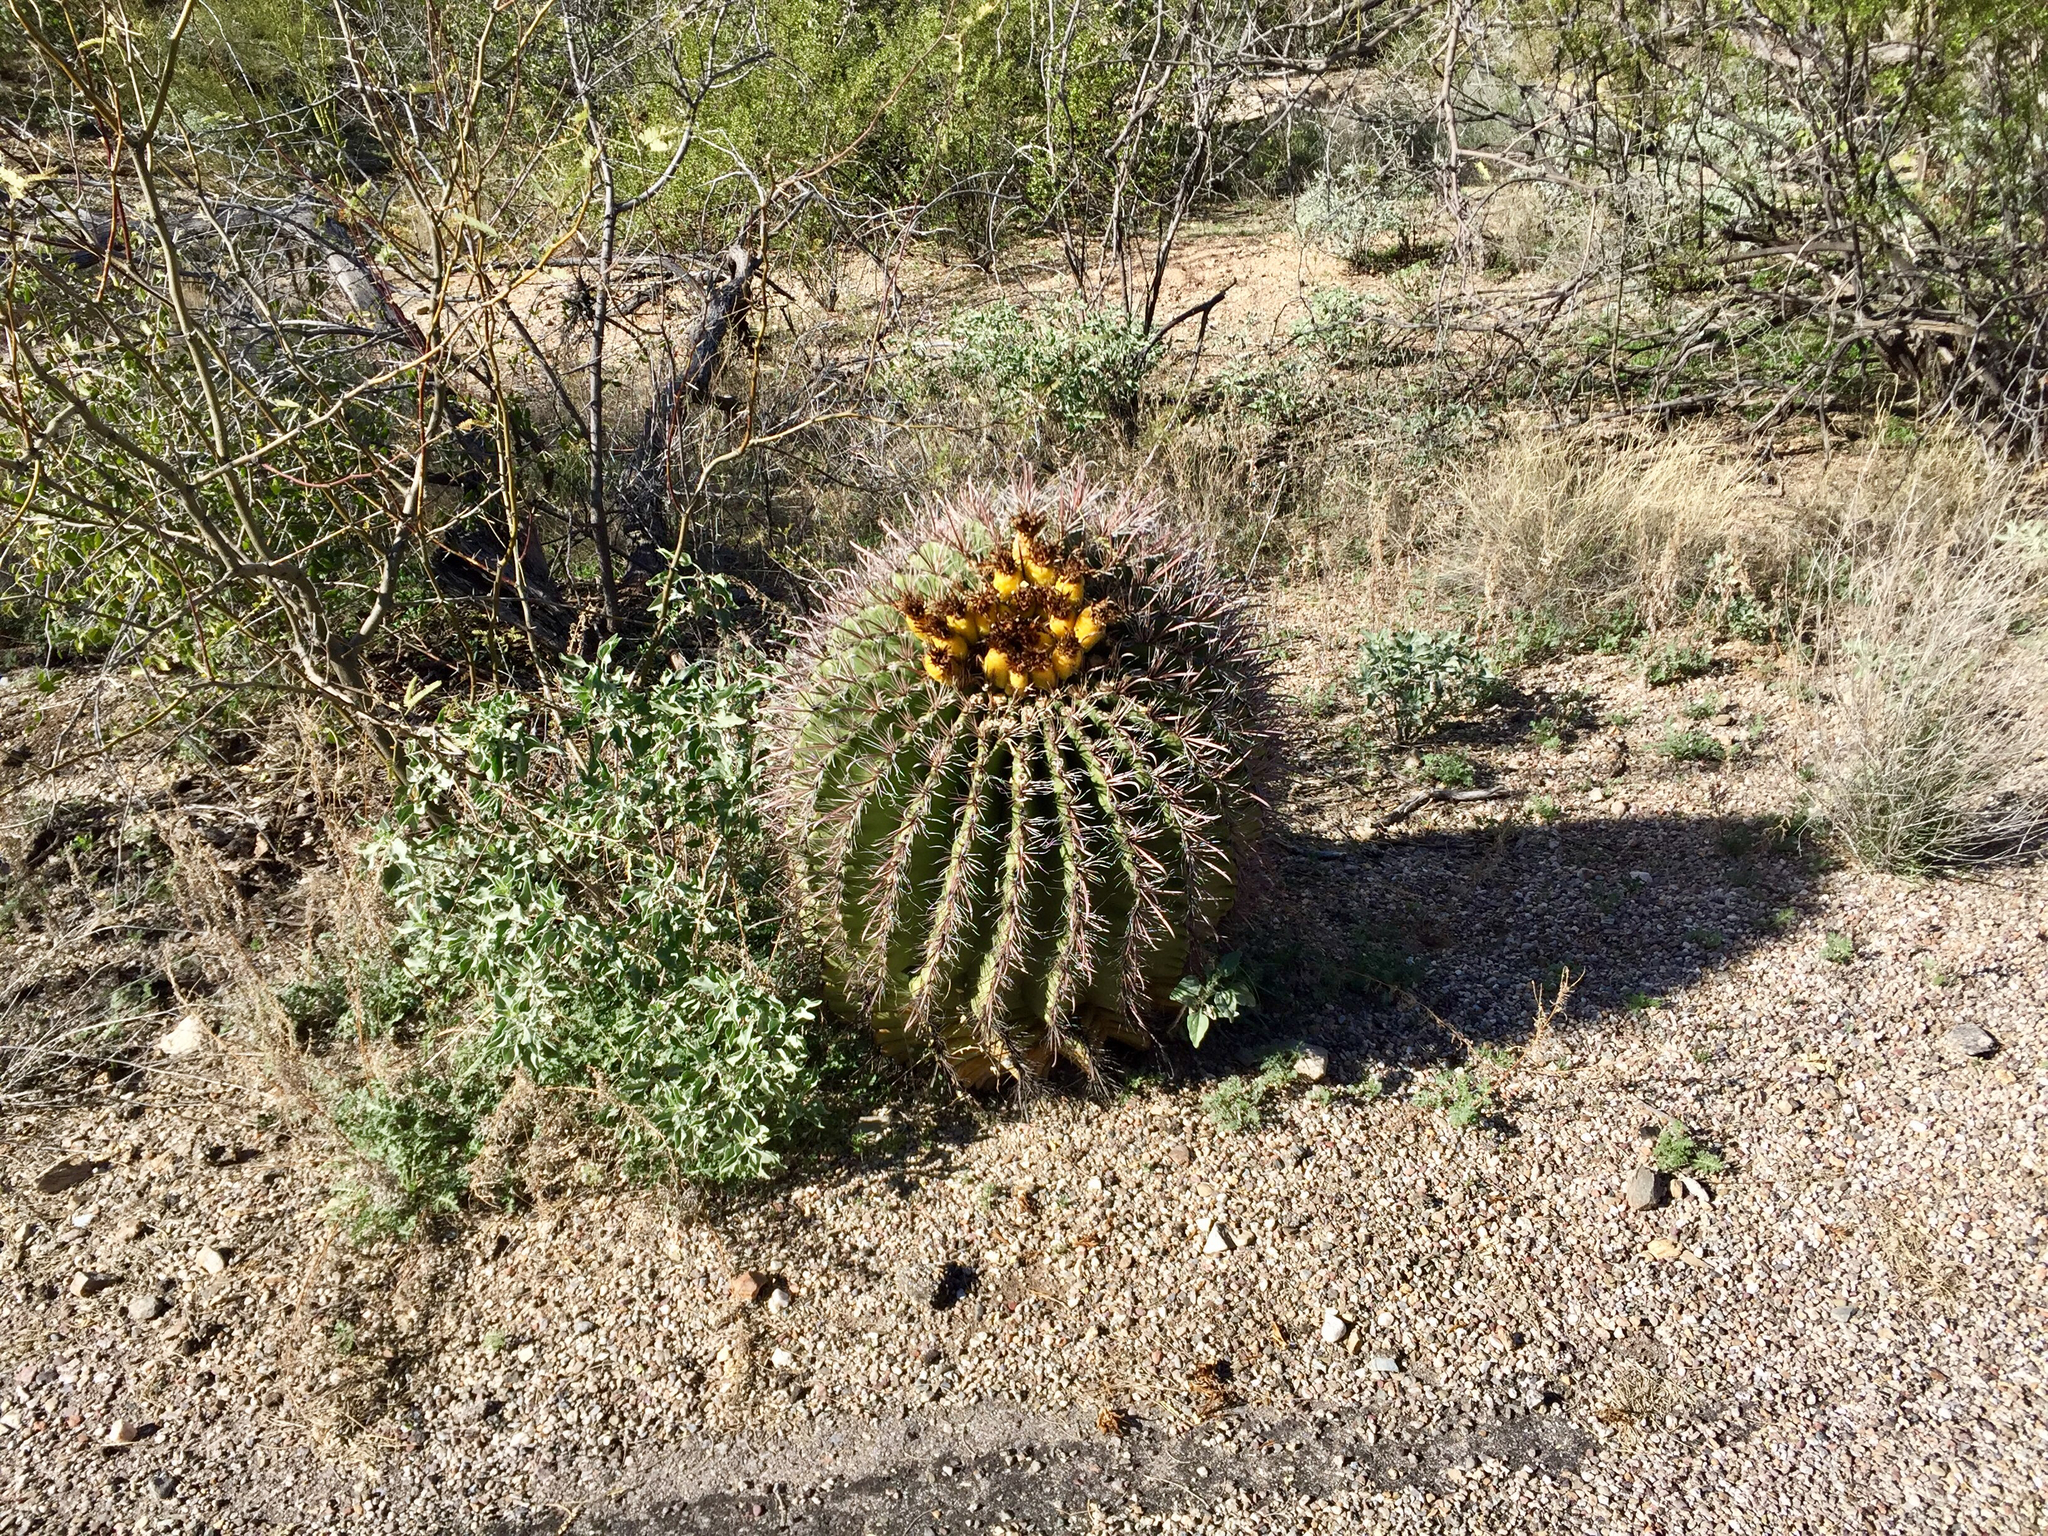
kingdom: Plantae
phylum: Tracheophyta
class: Magnoliopsida
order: Caryophyllales
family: Cactaceae
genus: Ferocactus
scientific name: Ferocactus wislizeni
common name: Candy barrel cactus
